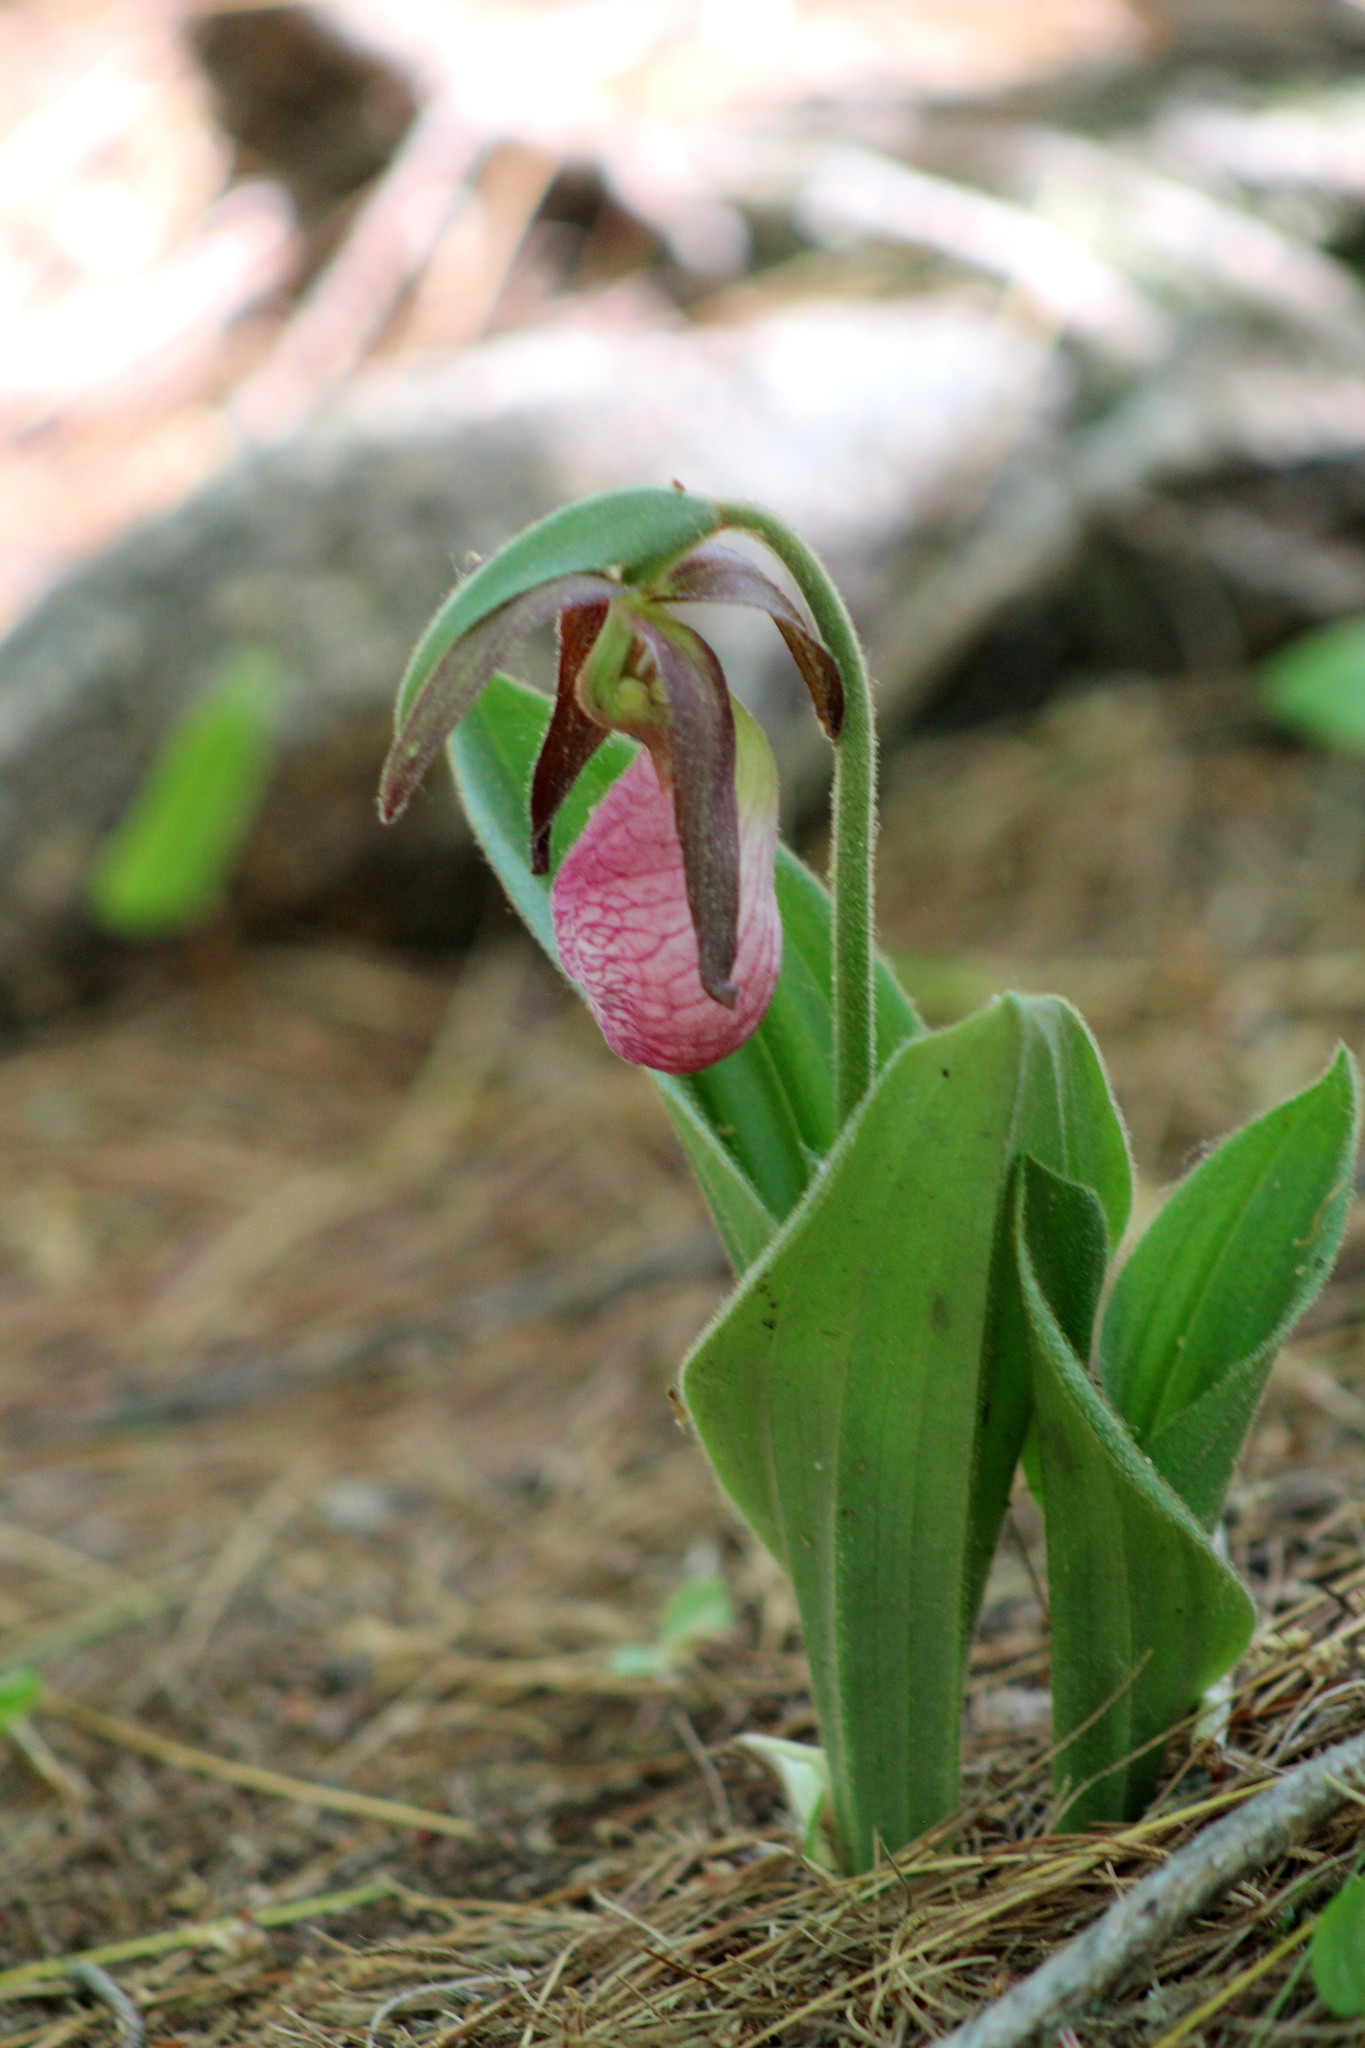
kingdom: Plantae
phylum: Tracheophyta
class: Liliopsida
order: Asparagales
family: Orchidaceae
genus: Cypripedium
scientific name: Cypripedium acaule
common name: Pink lady's-slipper
